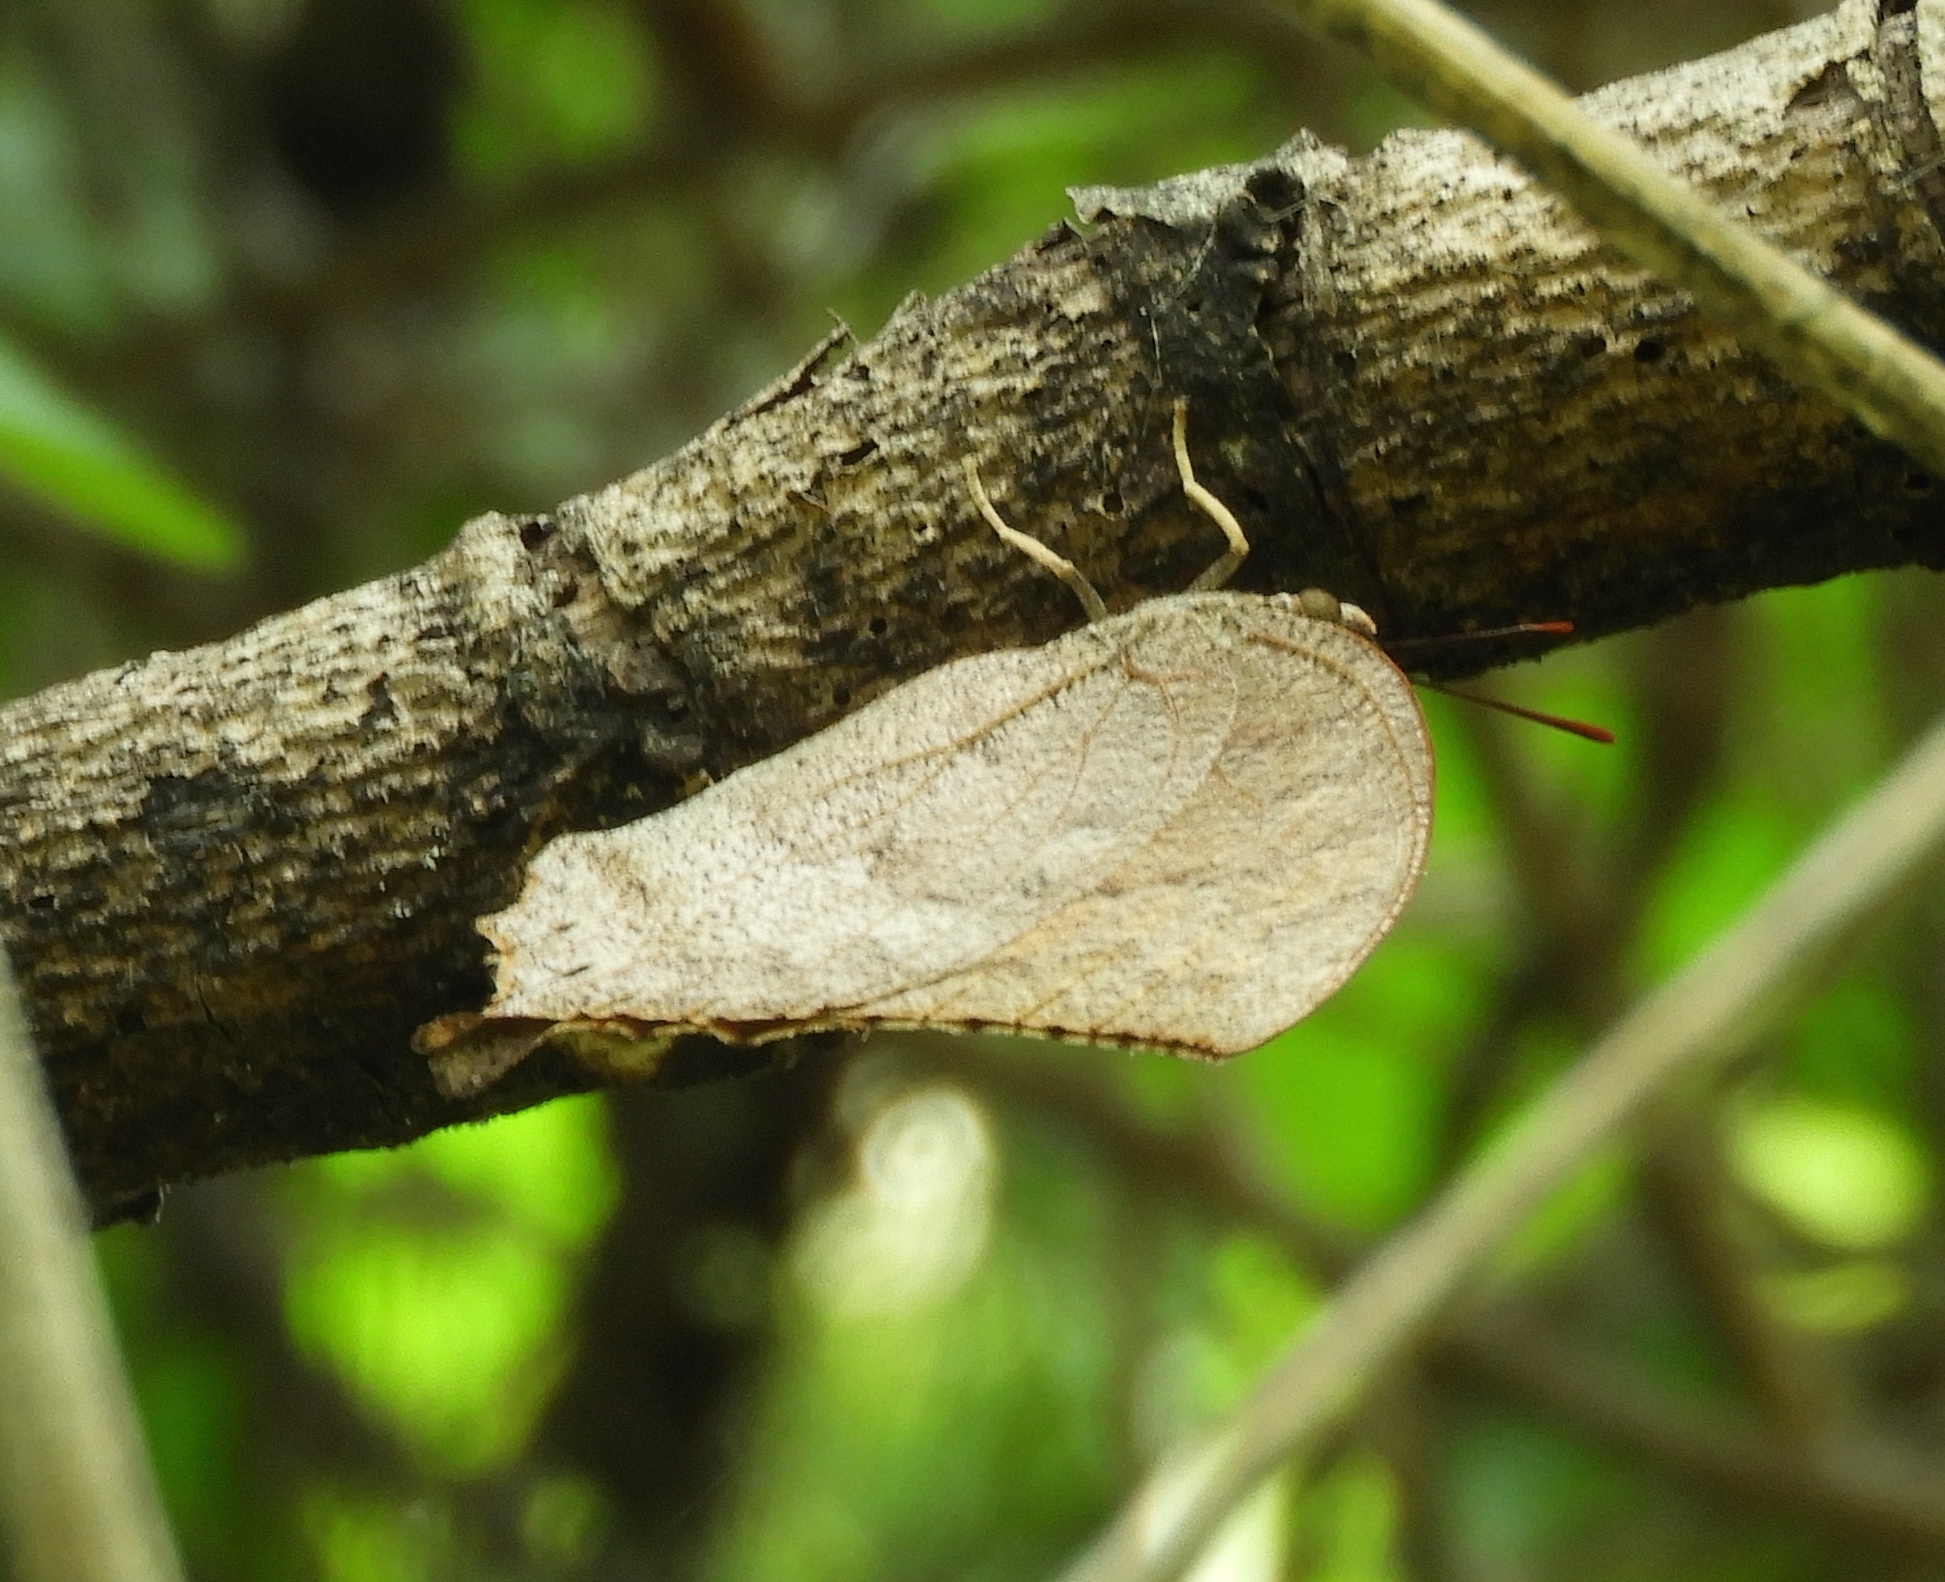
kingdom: Animalia
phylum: Arthropoda
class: Insecta
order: Lepidoptera
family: Nymphalidae
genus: Anaea
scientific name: Anaea aidea
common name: Tropical leafwing
